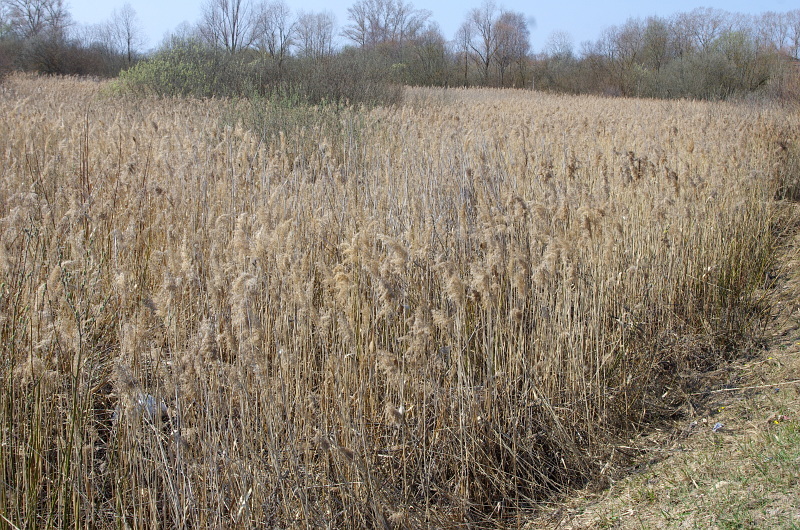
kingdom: Plantae
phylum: Tracheophyta
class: Liliopsida
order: Poales
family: Poaceae
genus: Phragmites
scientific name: Phragmites australis
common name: Common reed
